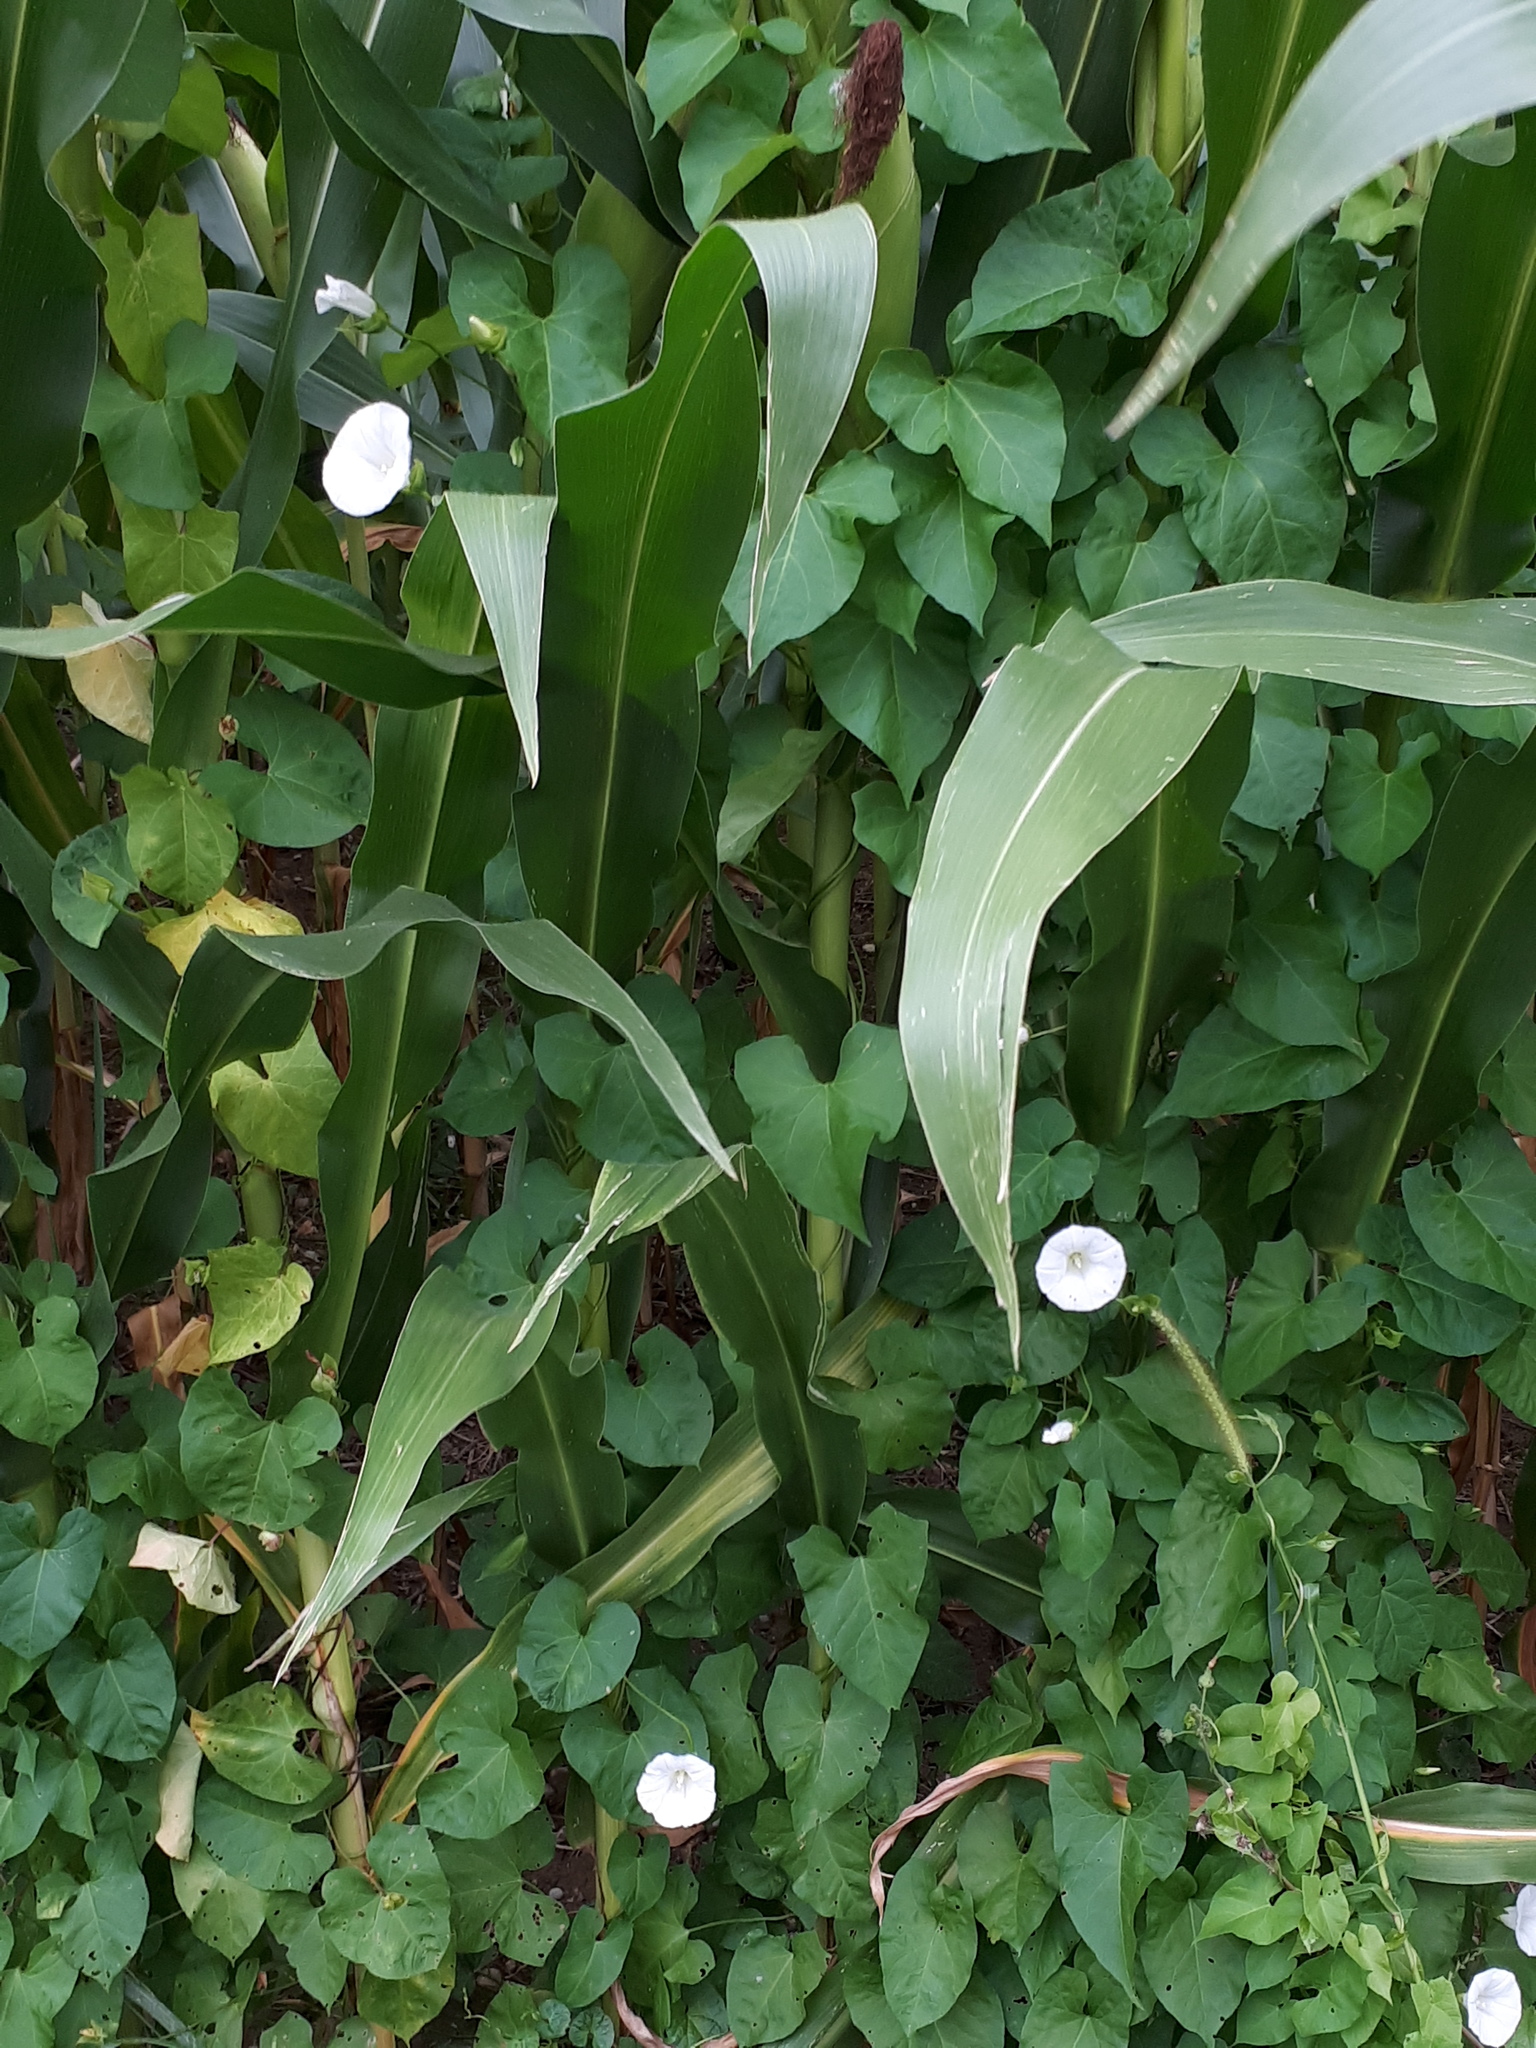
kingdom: Plantae
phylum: Tracheophyta
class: Magnoliopsida
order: Solanales
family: Convolvulaceae
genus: Calystegia
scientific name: Calystegia sepium
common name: Hedge bindweed
